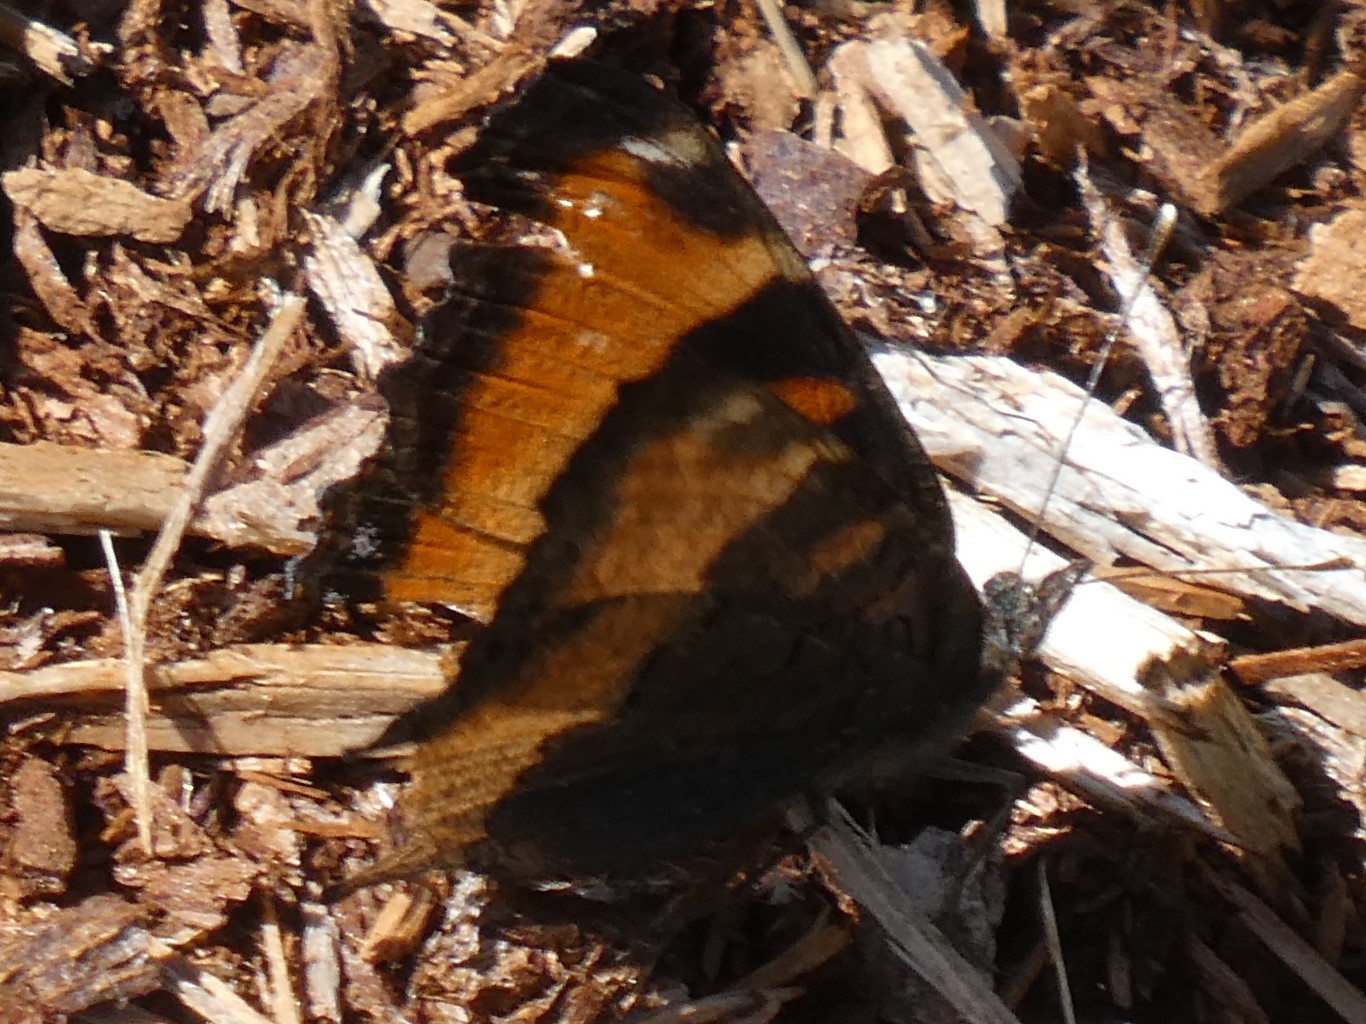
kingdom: Animalia
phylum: Arthropoda
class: Insecta
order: Lepidoptera
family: Nymphalidae
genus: Aglais
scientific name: Aglais milberti
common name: Milbert's tortoiseshell
